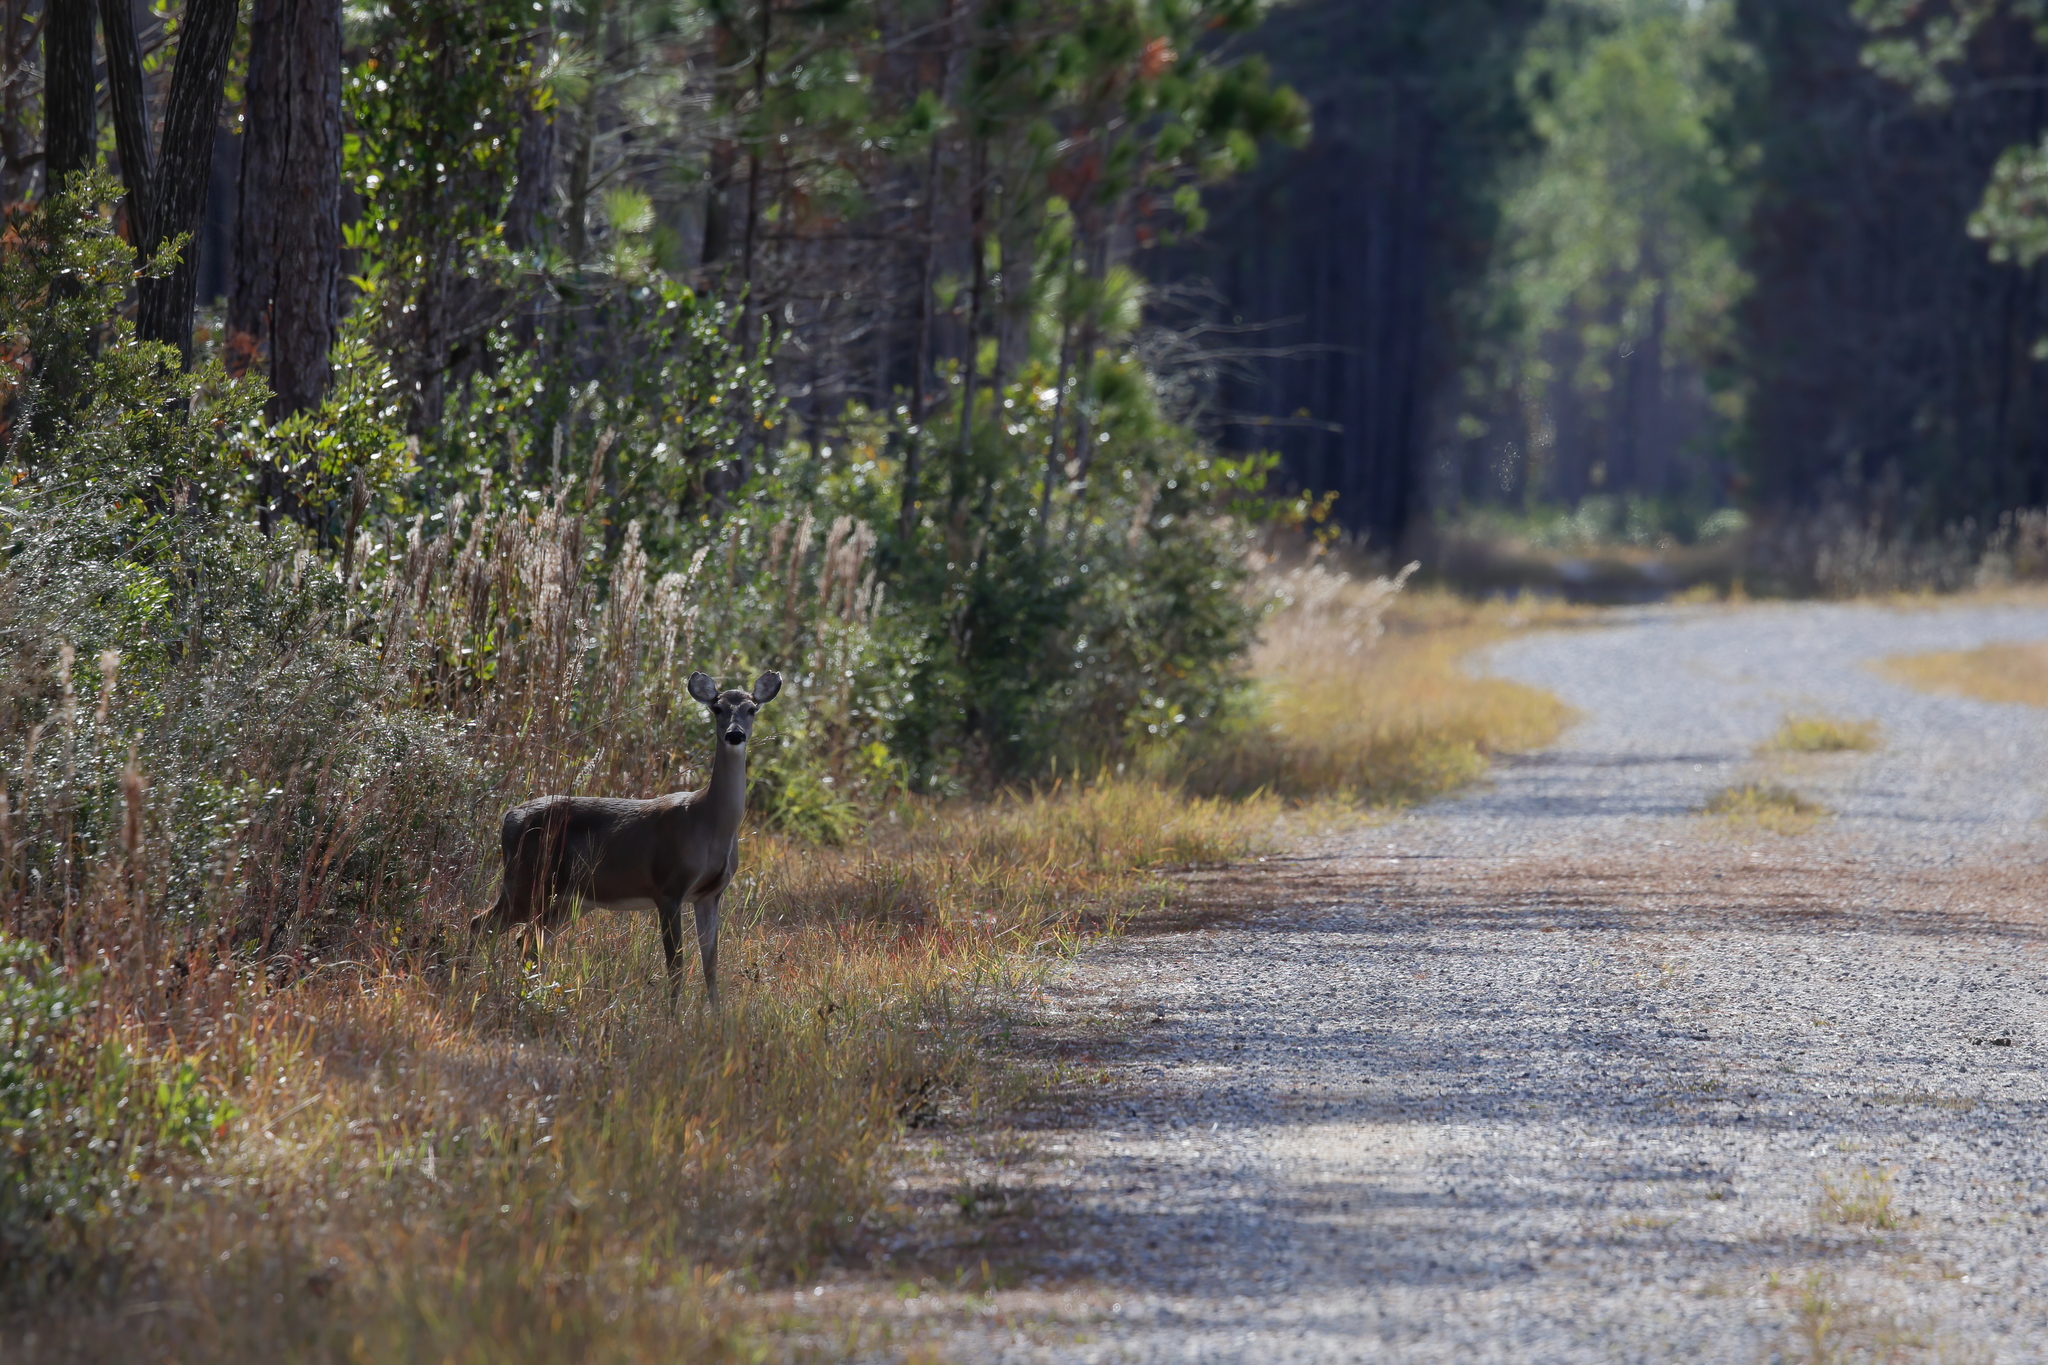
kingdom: Animalia
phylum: Chordata
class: Mammalia
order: Artiodactyla
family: Cervidae
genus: Odocoileus
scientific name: Odocoileus virginianus
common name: White-tailed deer
